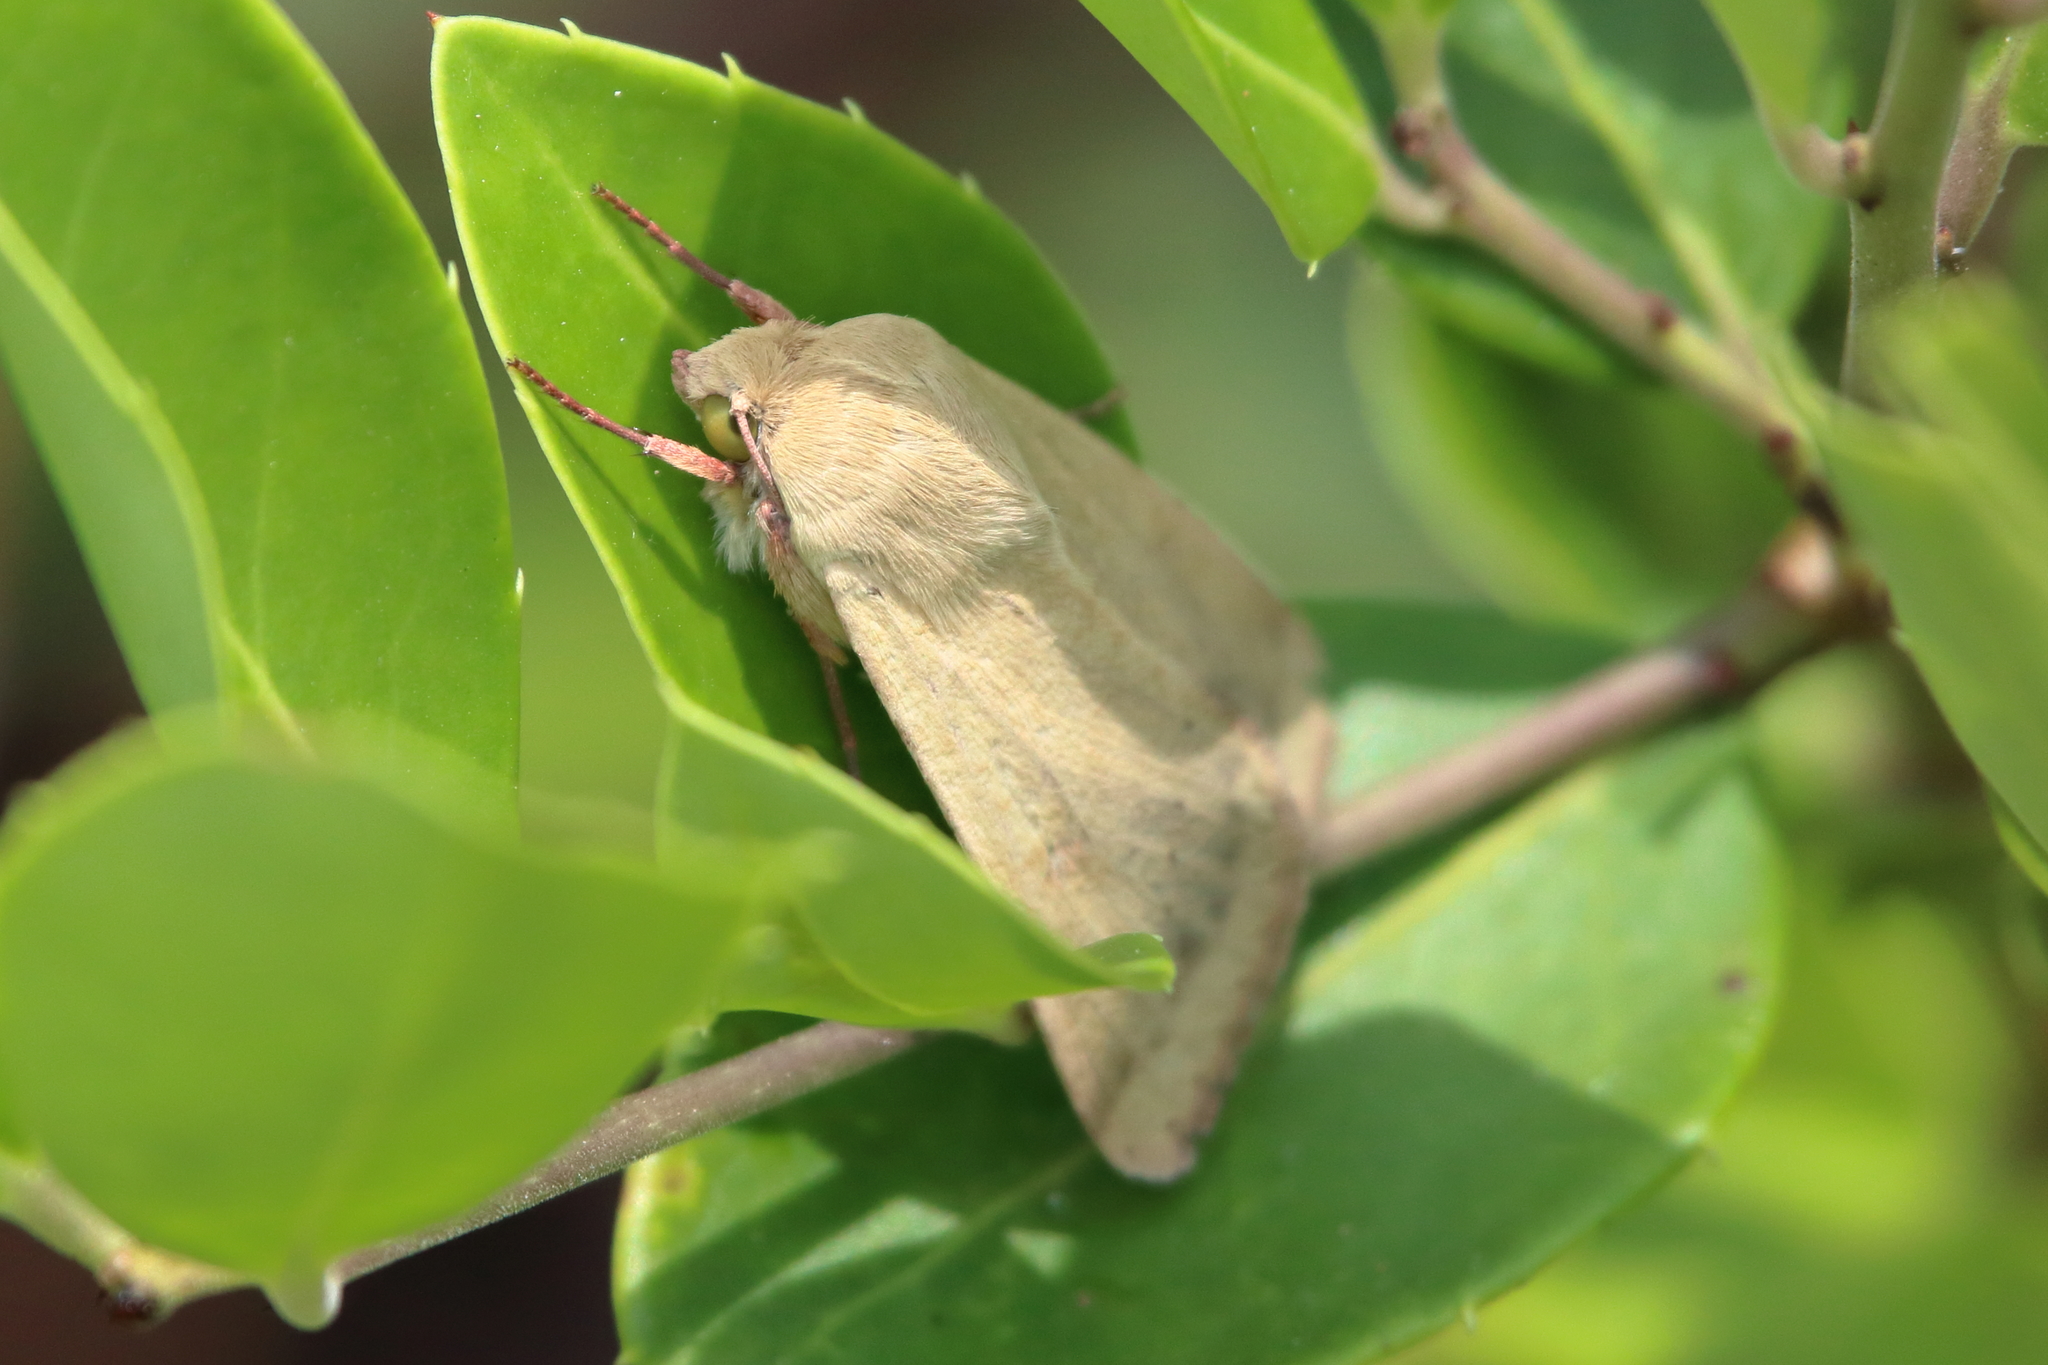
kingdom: Animalia
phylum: Arthropoda
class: Insecta
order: Lepidoptera
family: Noctuidae
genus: Helicoverpa
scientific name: Helicoverpa zea
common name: Bollworm
